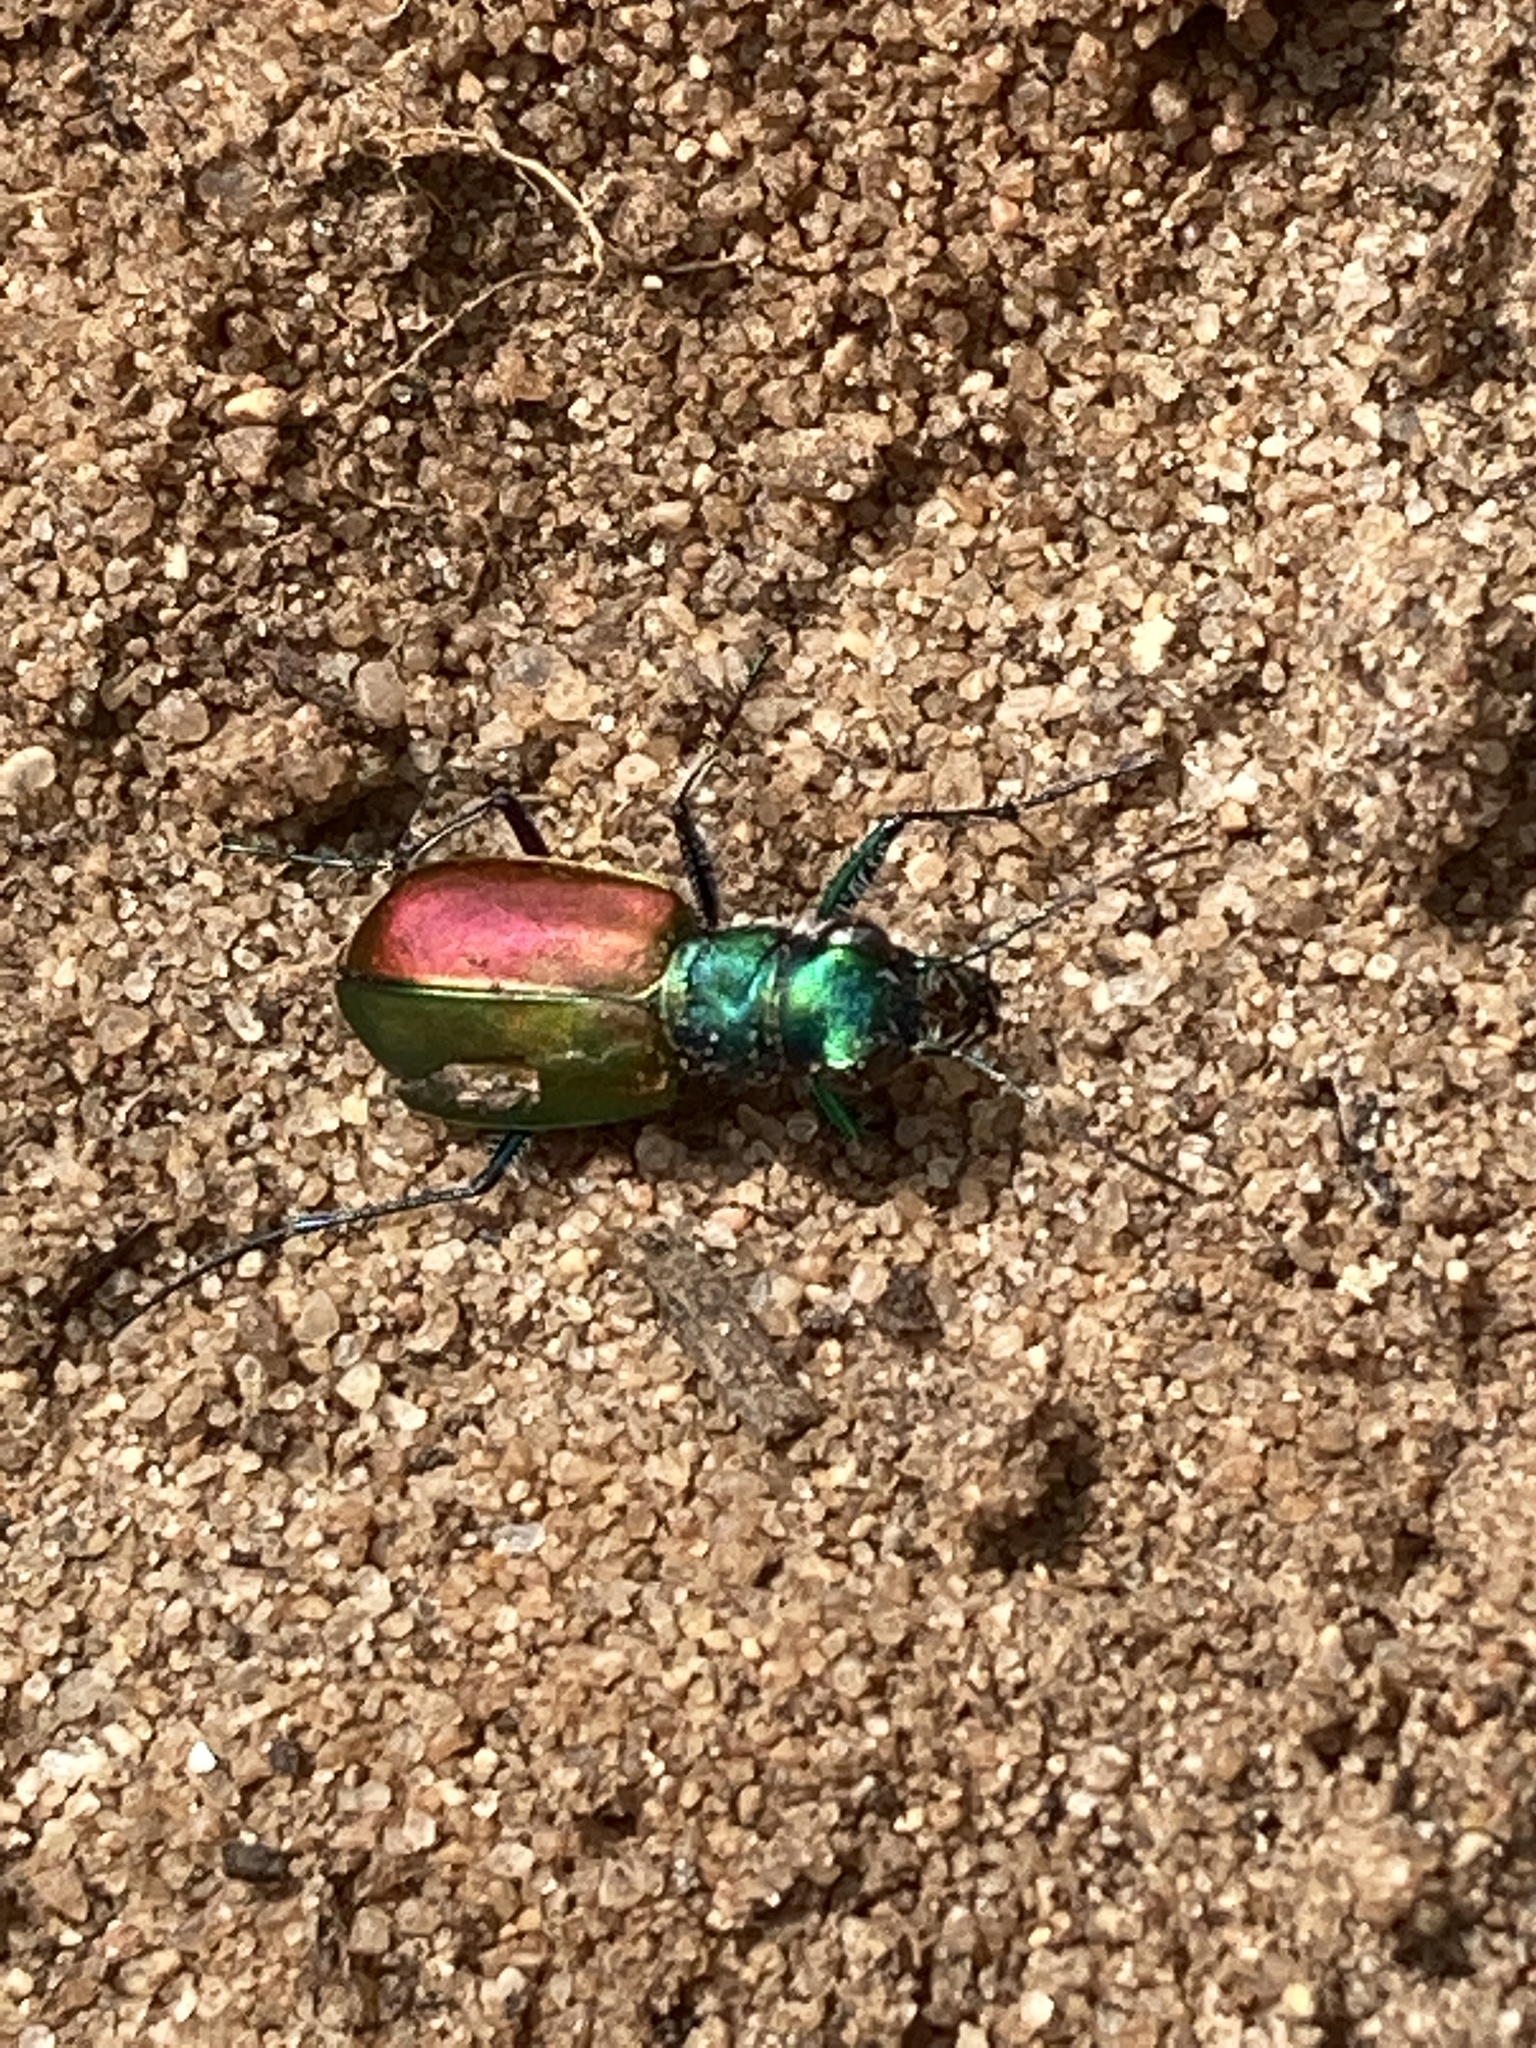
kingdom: Animalia
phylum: Arthropoda
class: Insecta
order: Coleoptera
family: Carabidae
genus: Cicindela
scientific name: Cicindela scutellaris
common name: Festive tiger beetle
